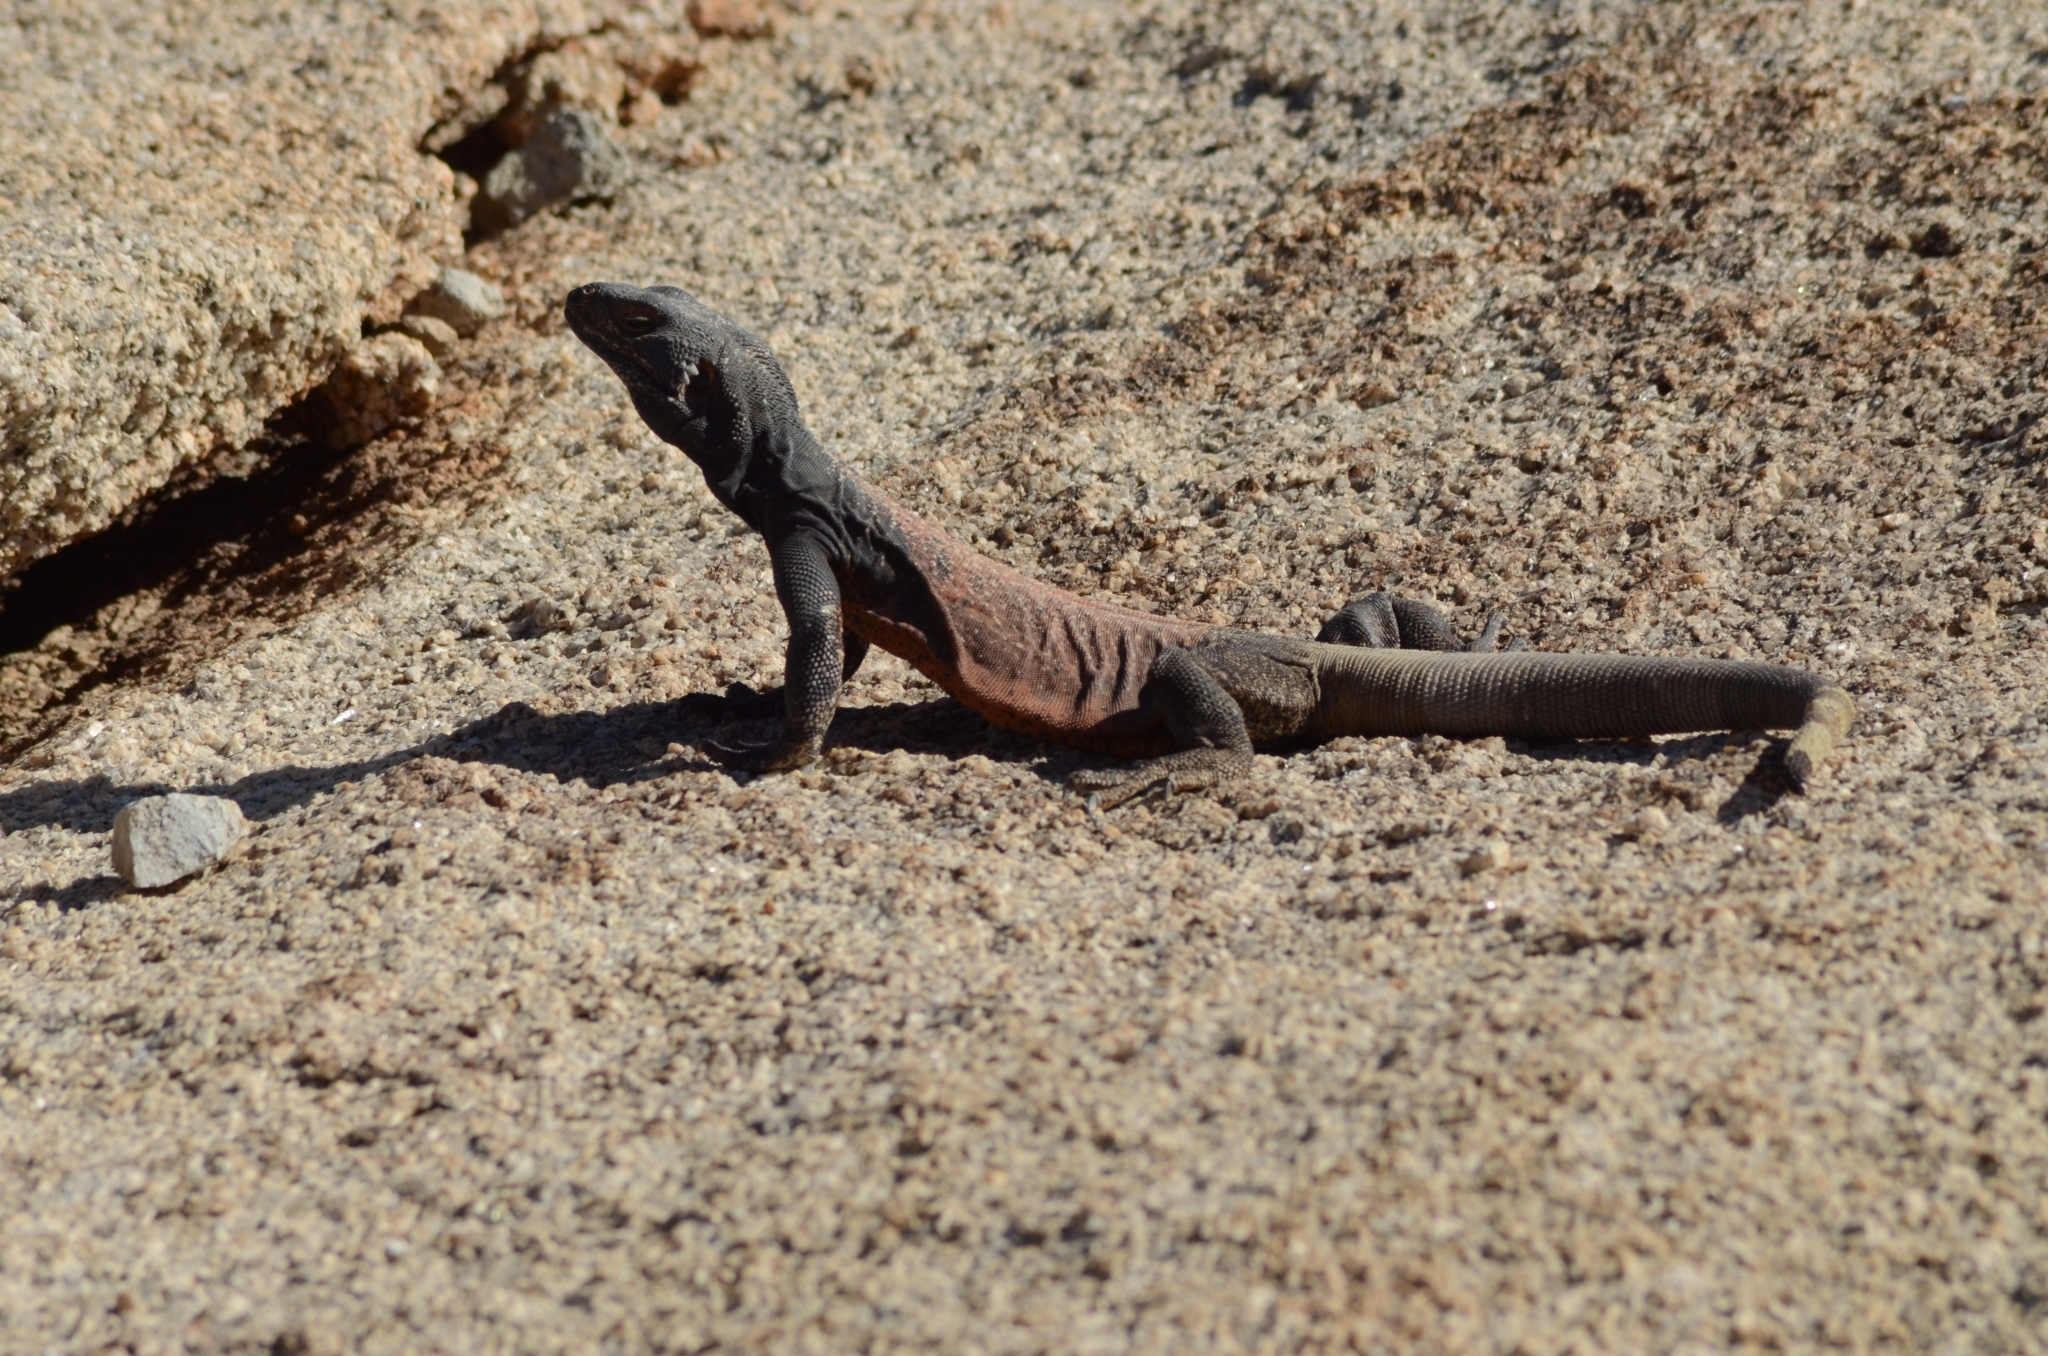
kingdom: Animalia
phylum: Chordata
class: Squamata
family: Iguanidae
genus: Sauromalus
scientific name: Sauromalus ater
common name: Northern chuckwalla
